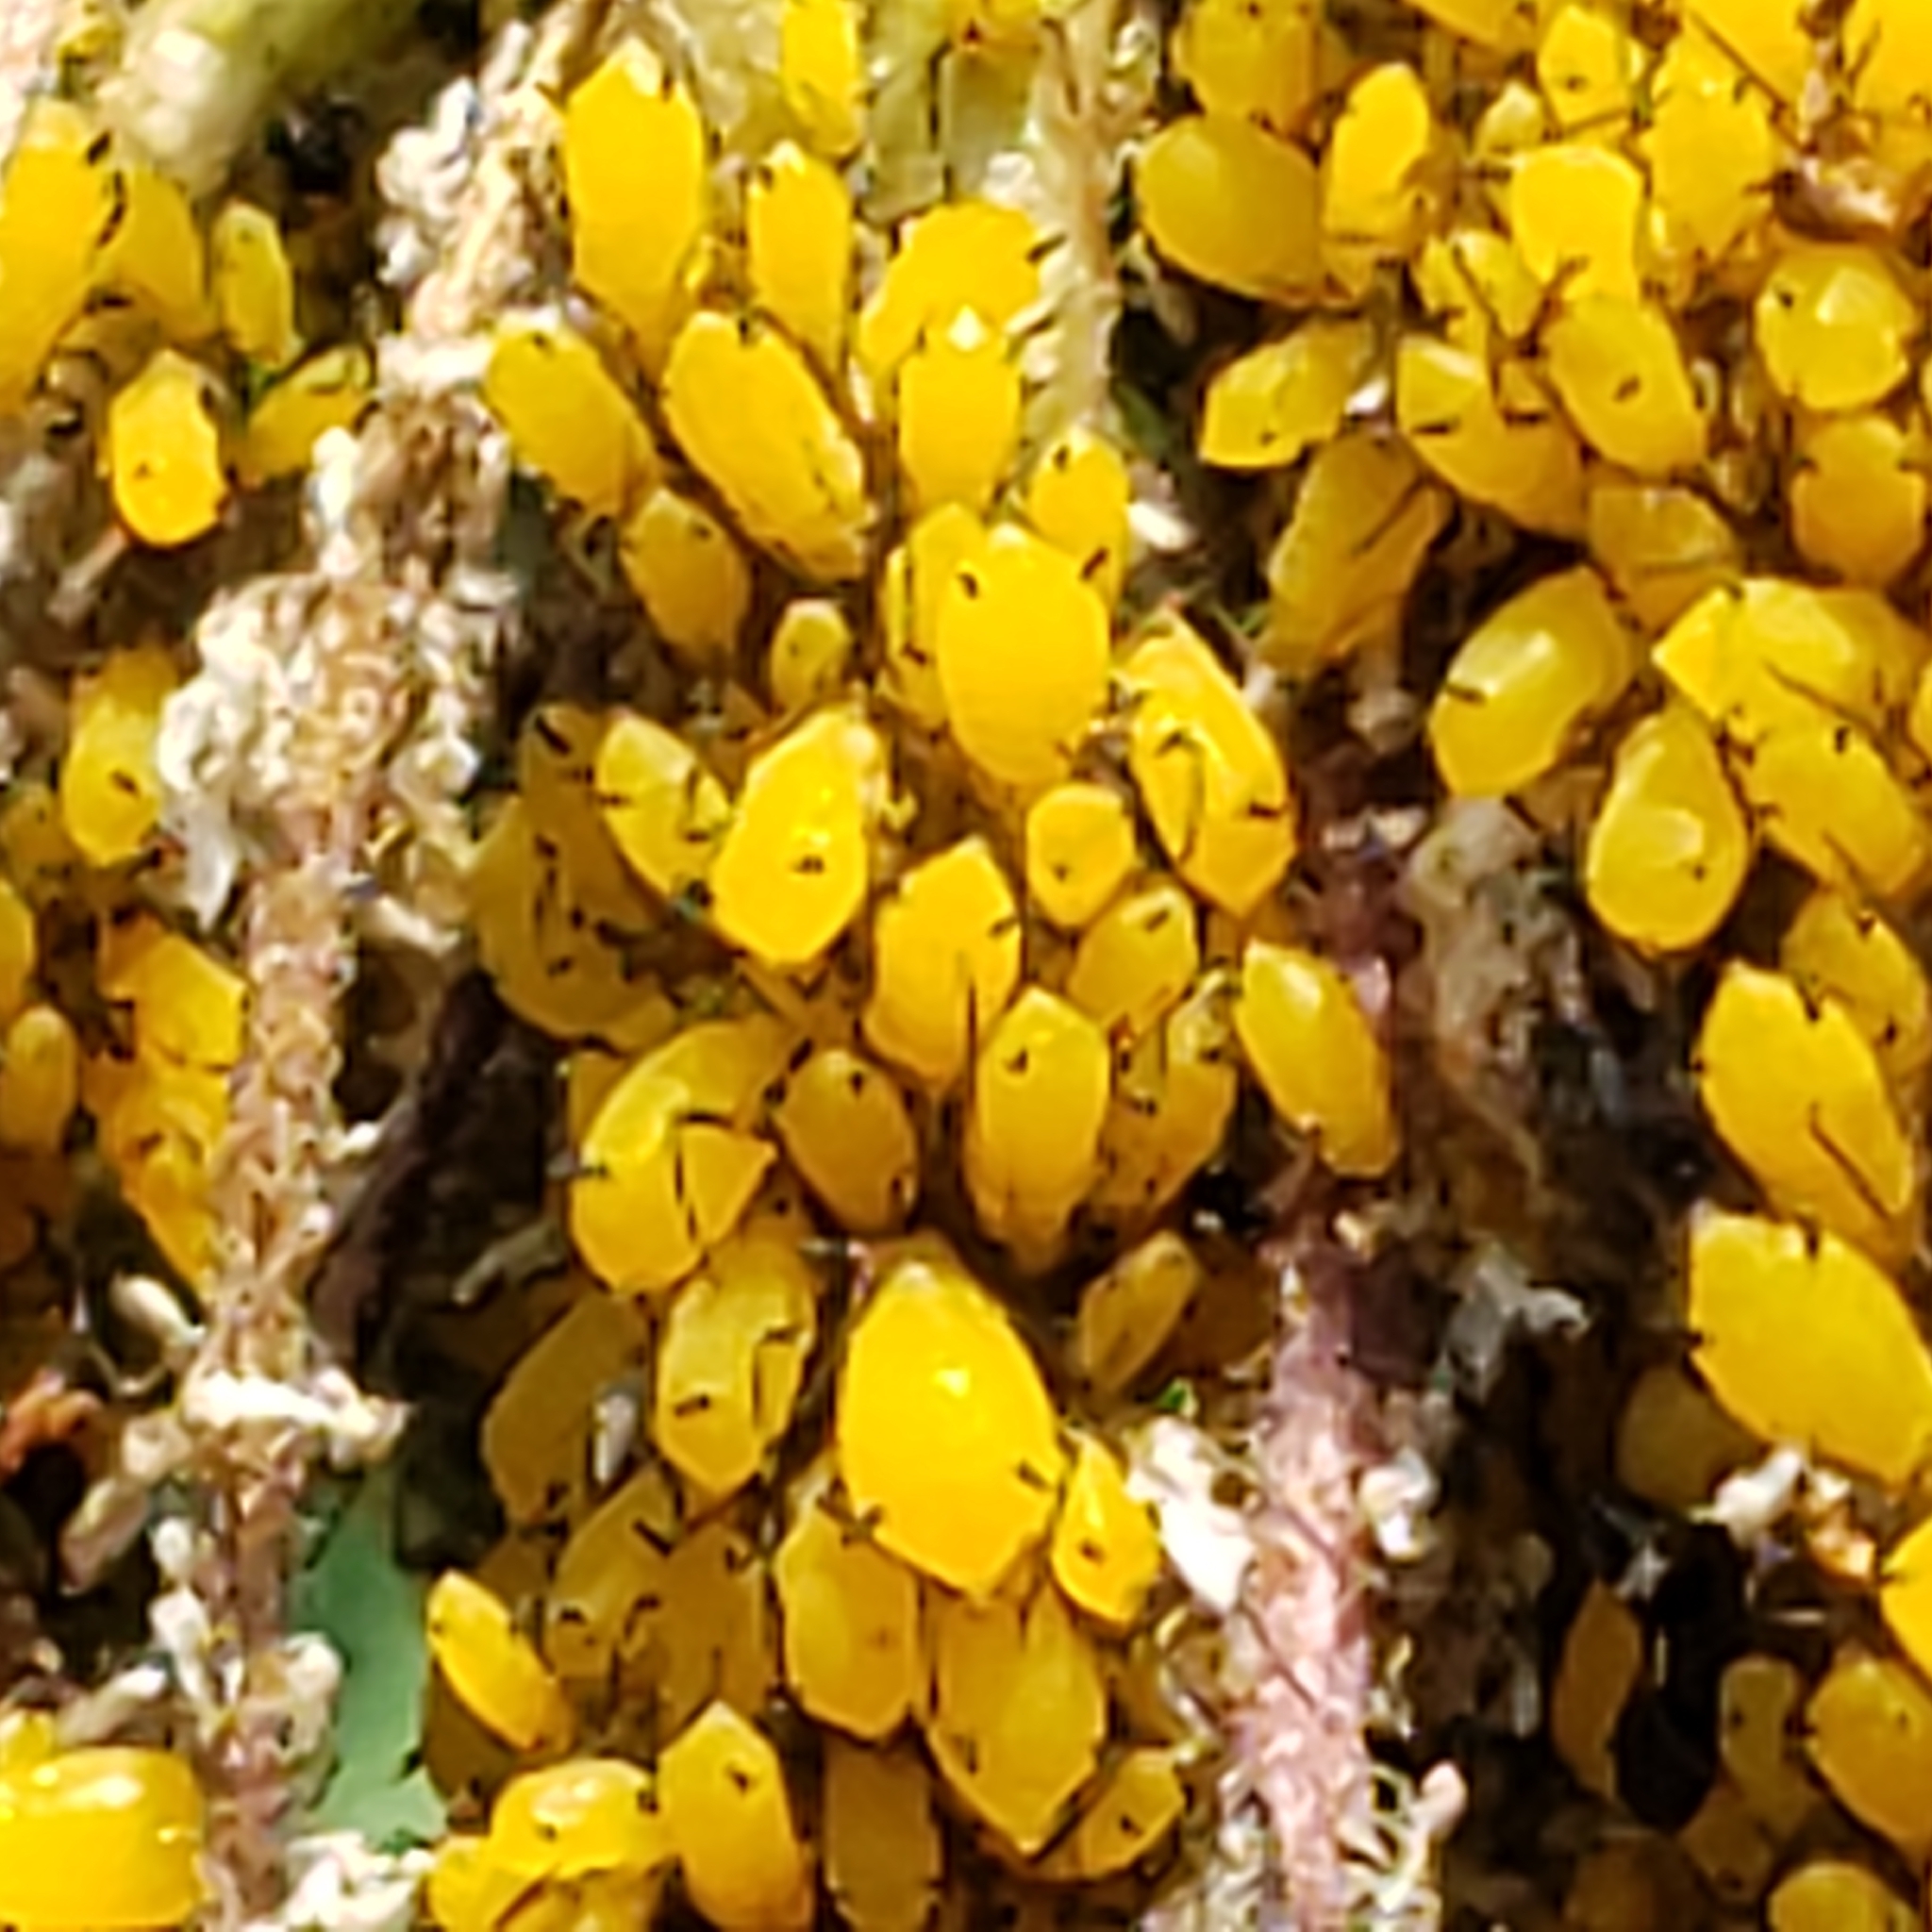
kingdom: Animalia
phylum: Arthropoda
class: Insecta
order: Hemiptera
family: Aphididae
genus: Aphis
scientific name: Aphis nerii
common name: Oleander aphid
